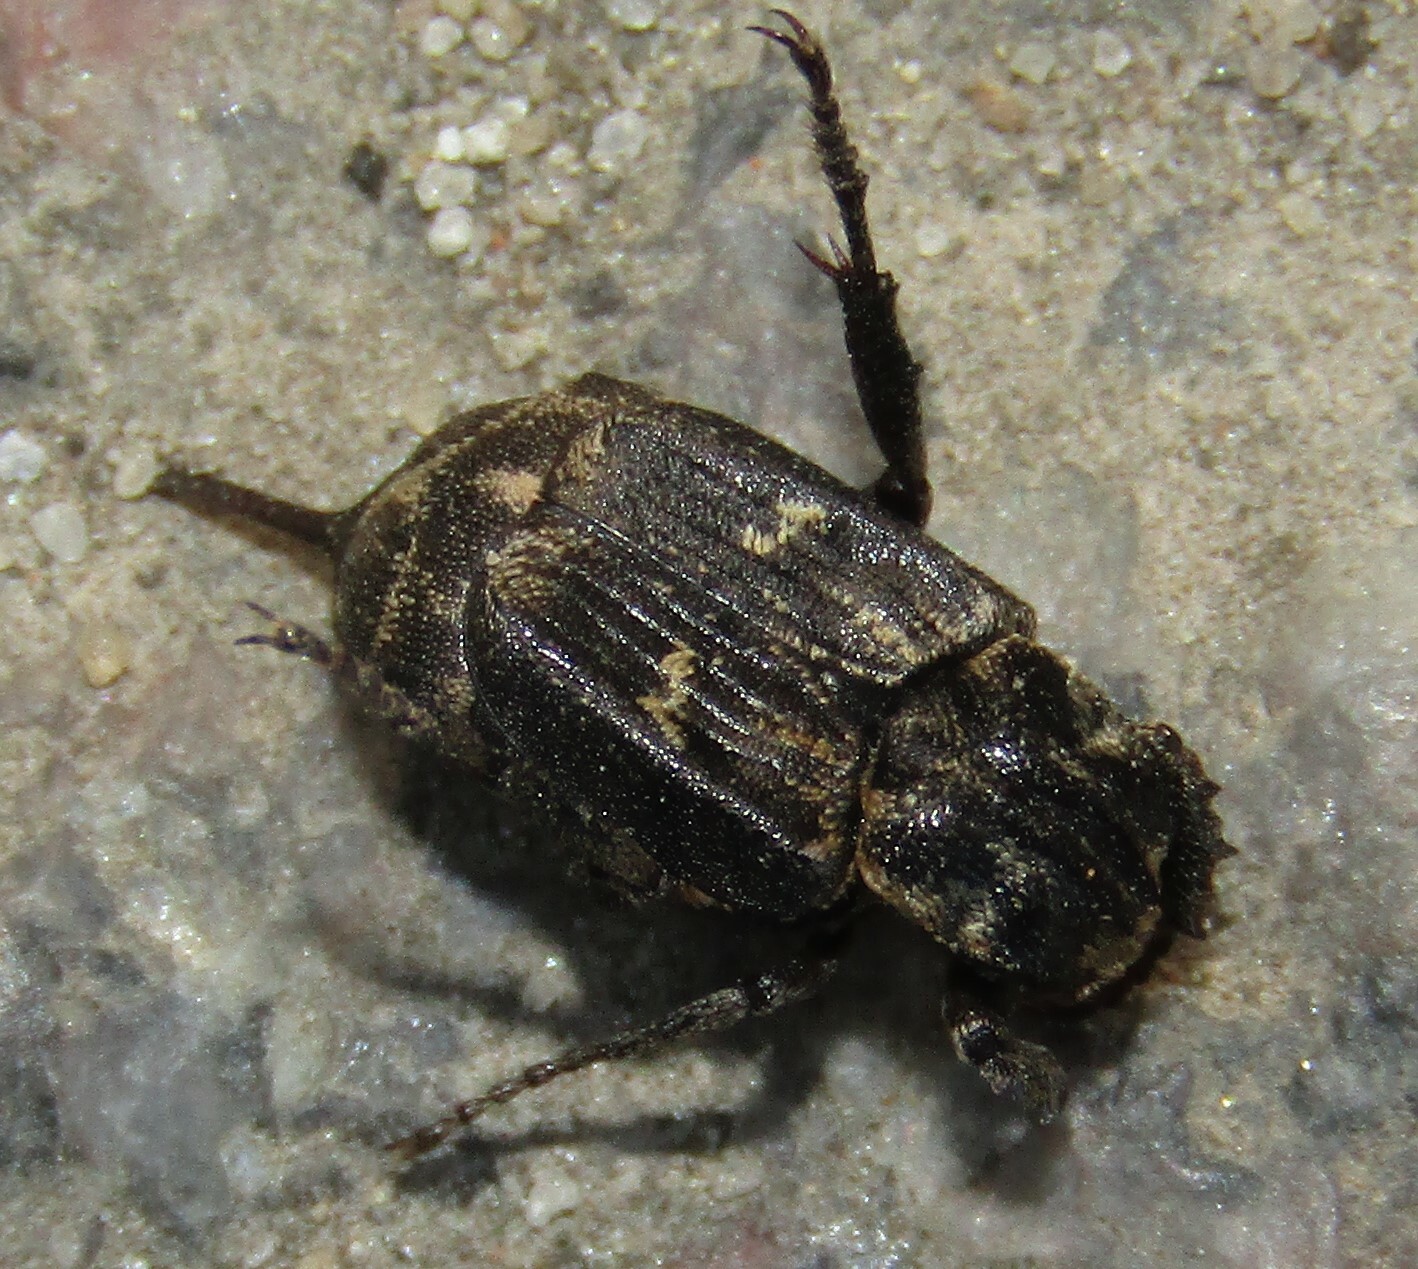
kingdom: Animalia
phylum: Arthropoda
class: Insecta
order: Coleoptera
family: Scarabaeidae
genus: Valgus
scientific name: Valgus hemipterus
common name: Bug flower chafer
